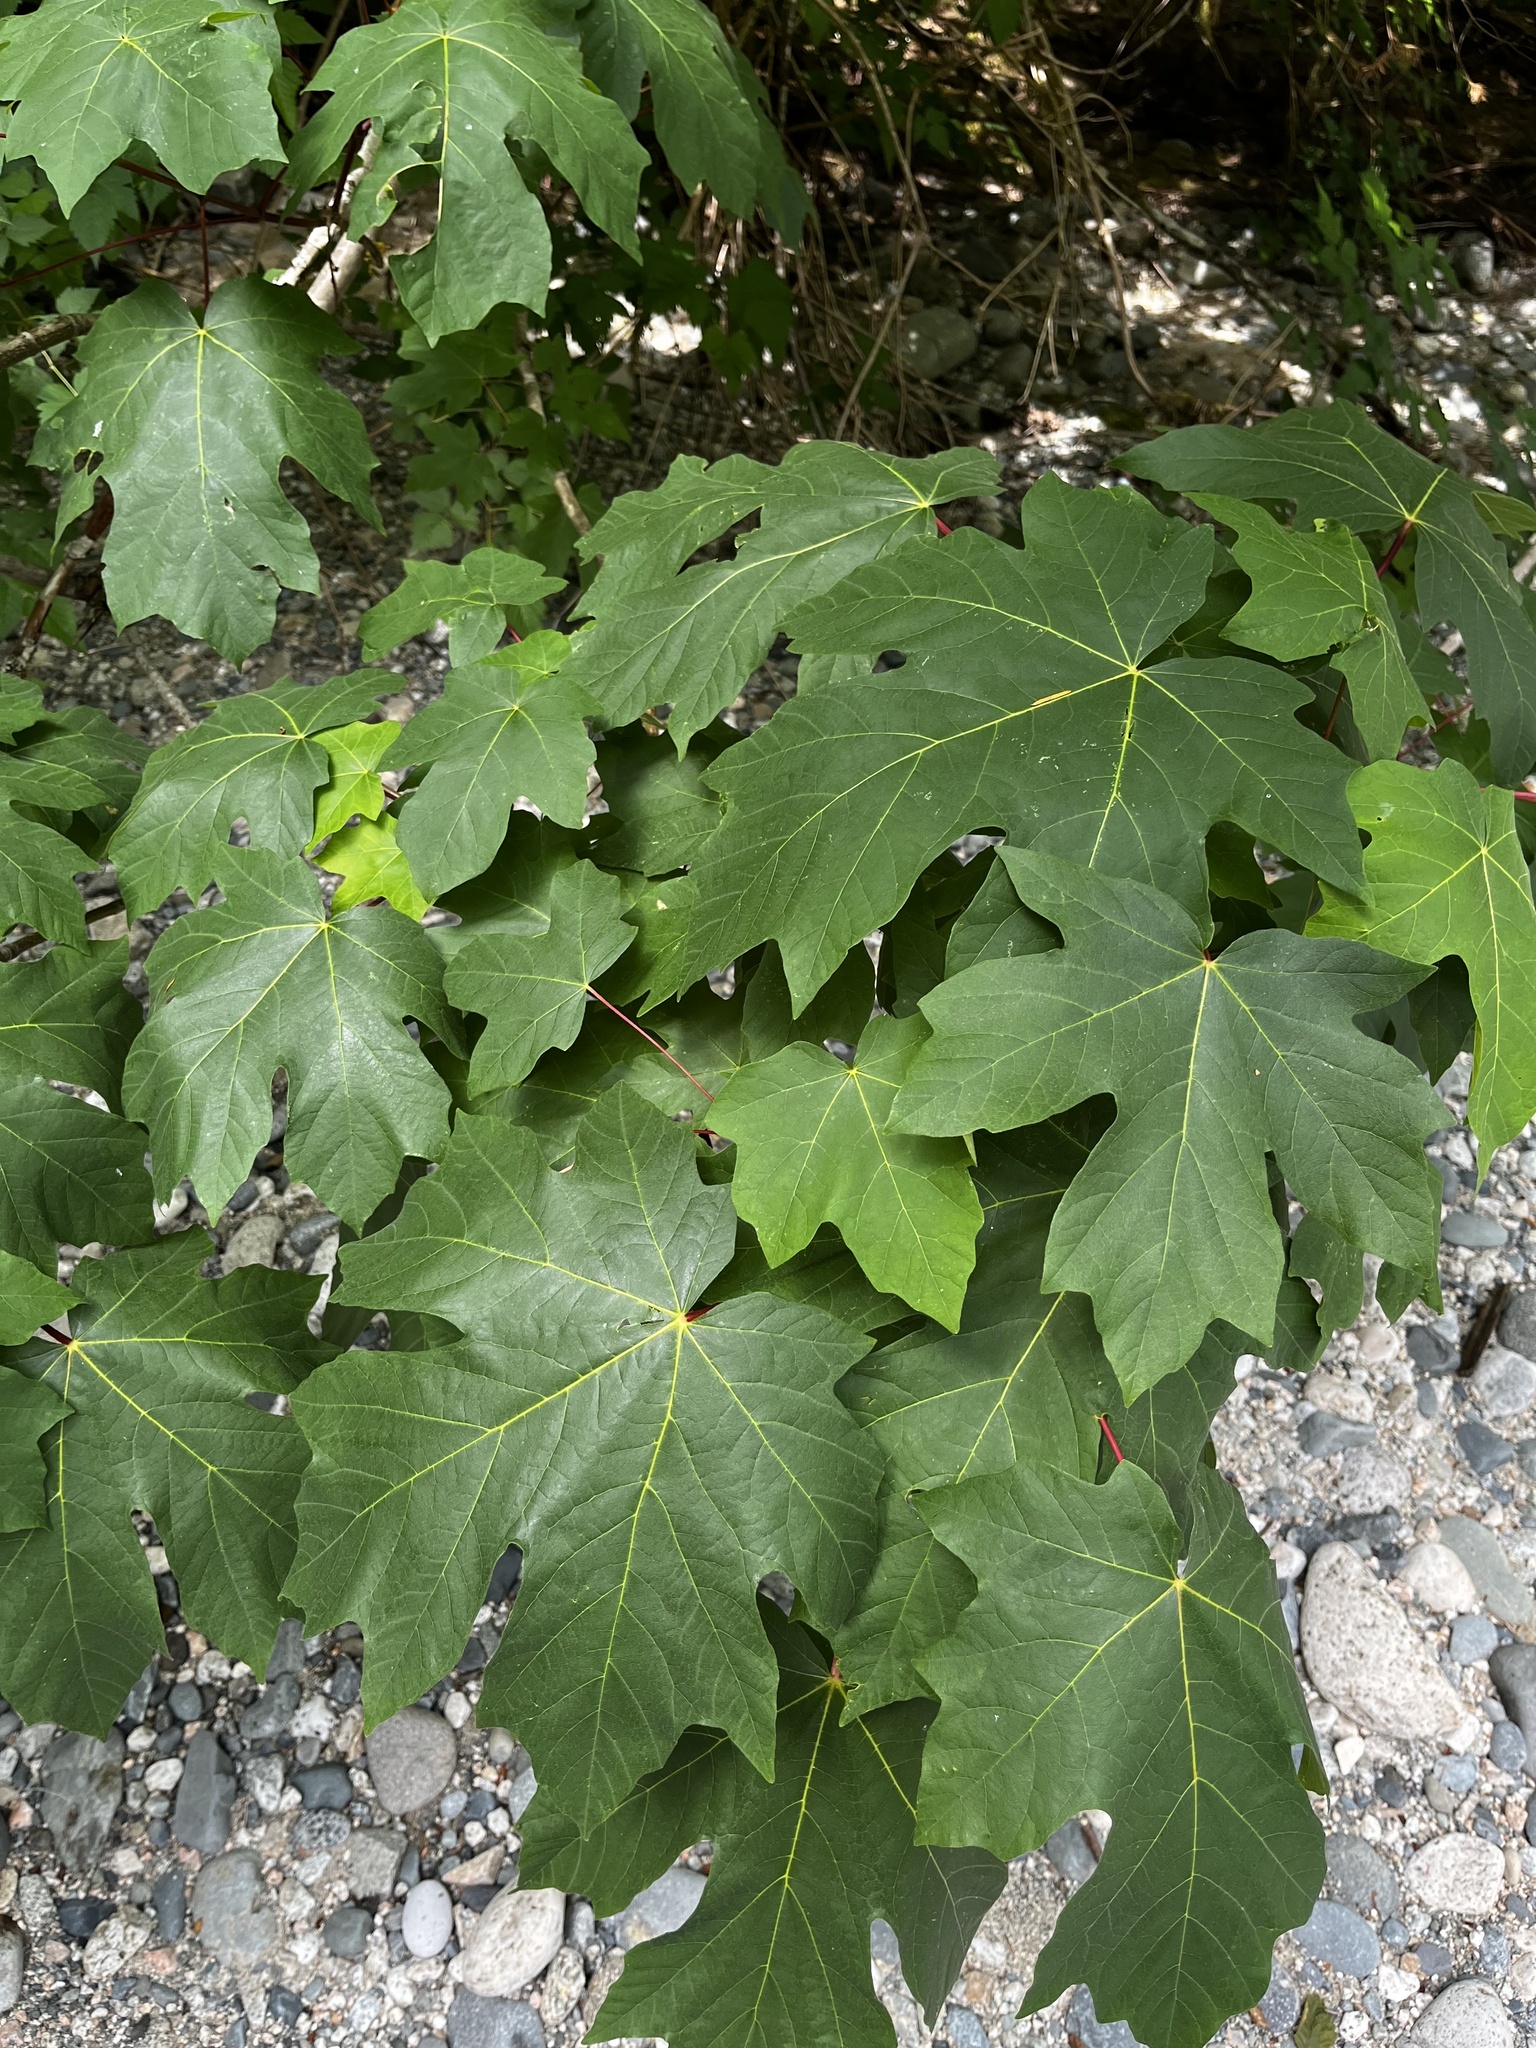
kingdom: Plantae
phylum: Tracheophyta
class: Magnoliopsida
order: Sapindales
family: Sapindaceae
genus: Acer
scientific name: Acer macrophyllum
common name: Oregon maple
